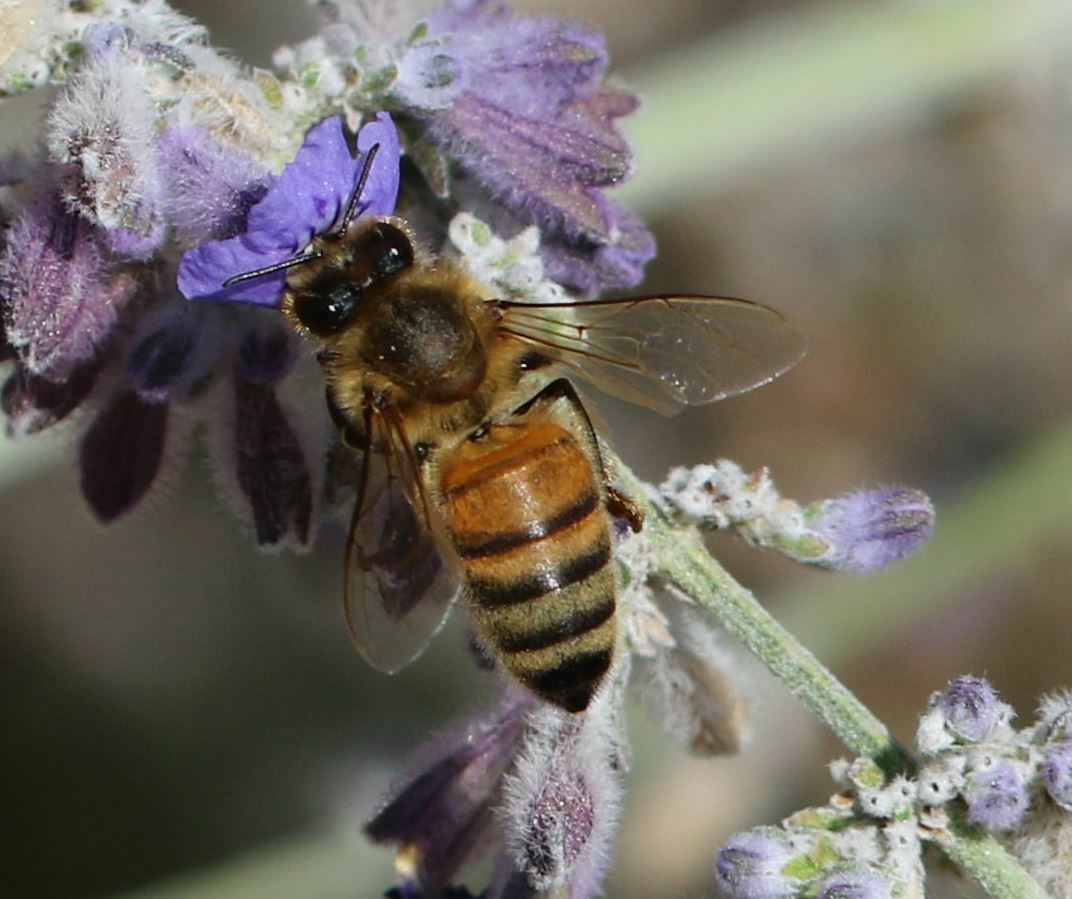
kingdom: Animalia
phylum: Arthropoda
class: Insecta
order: Hymenoptera
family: Apidae
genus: Apis
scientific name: Apis mellifera
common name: Honey bee
